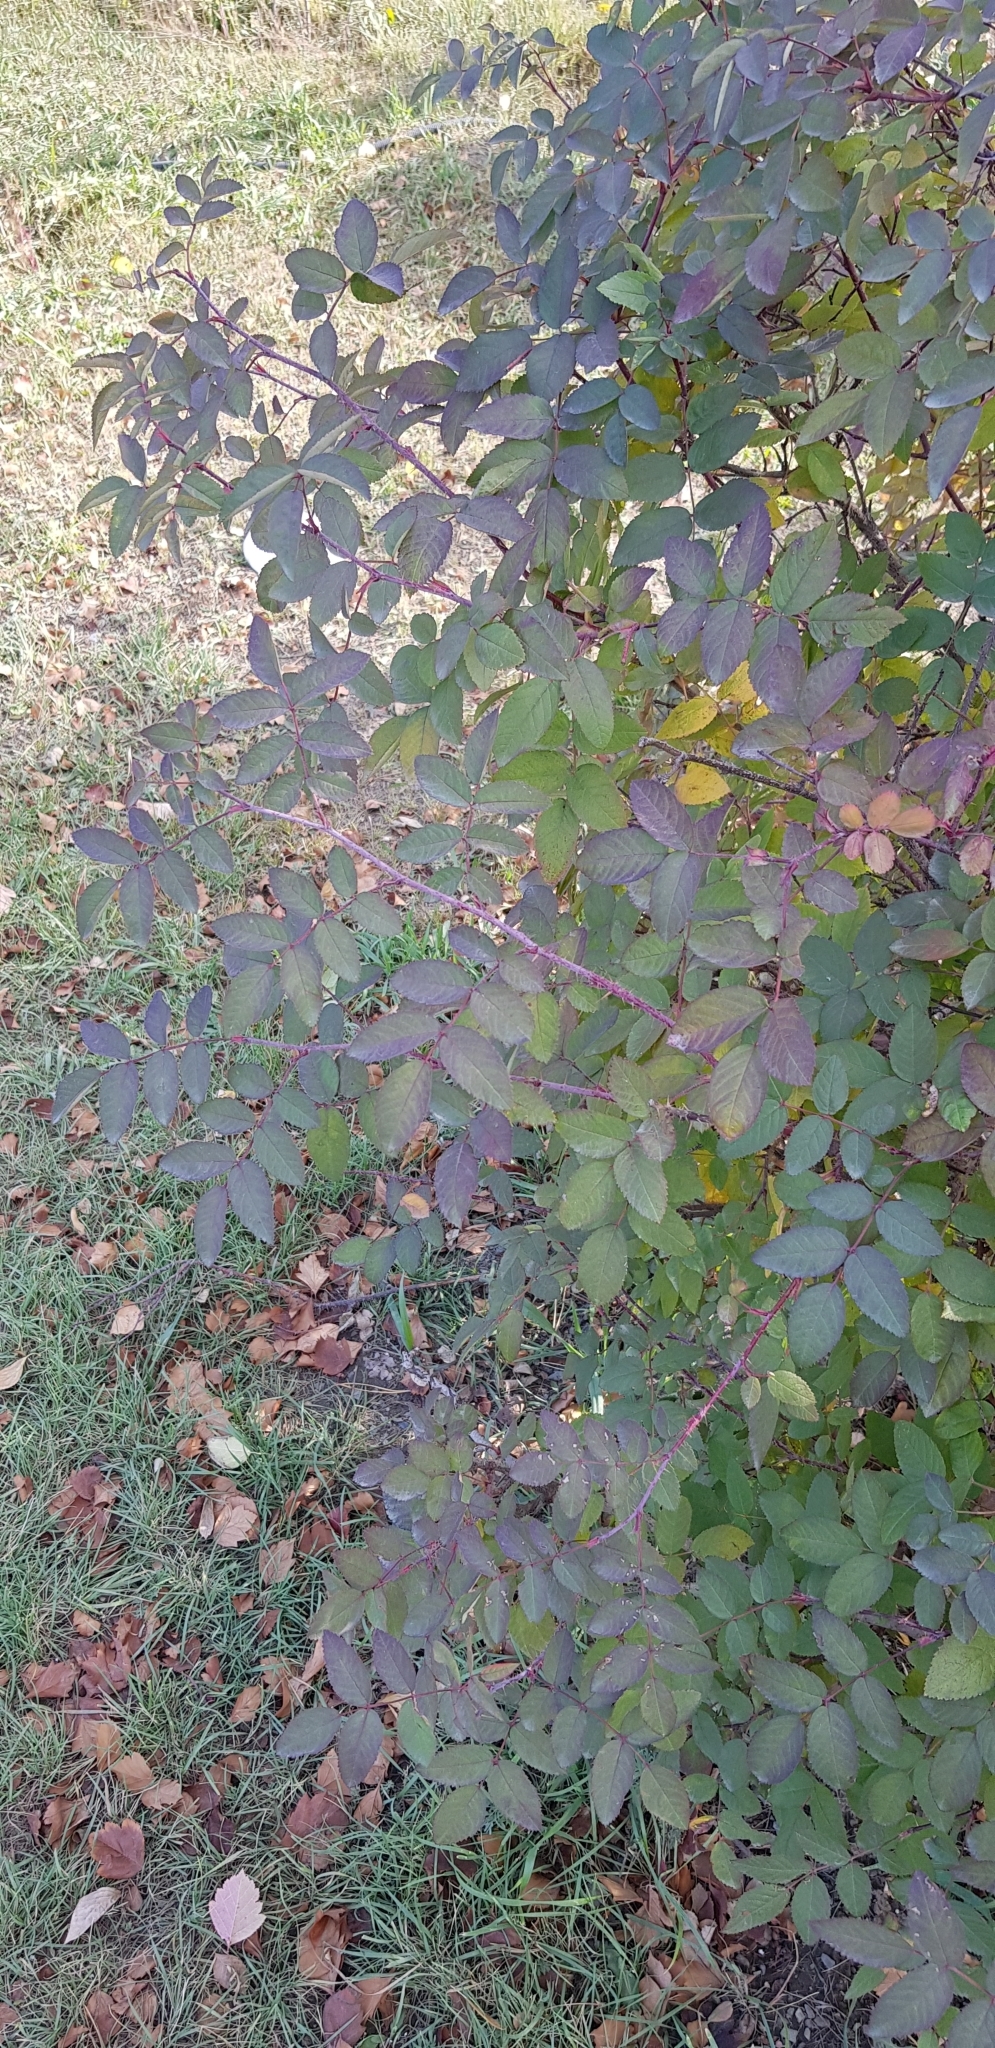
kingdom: Plantae
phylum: Tracheophyta
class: Magnoliopsida
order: Rosales
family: Rosaceae
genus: Rosa
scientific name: Rosa acicularis
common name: Prickly rose
